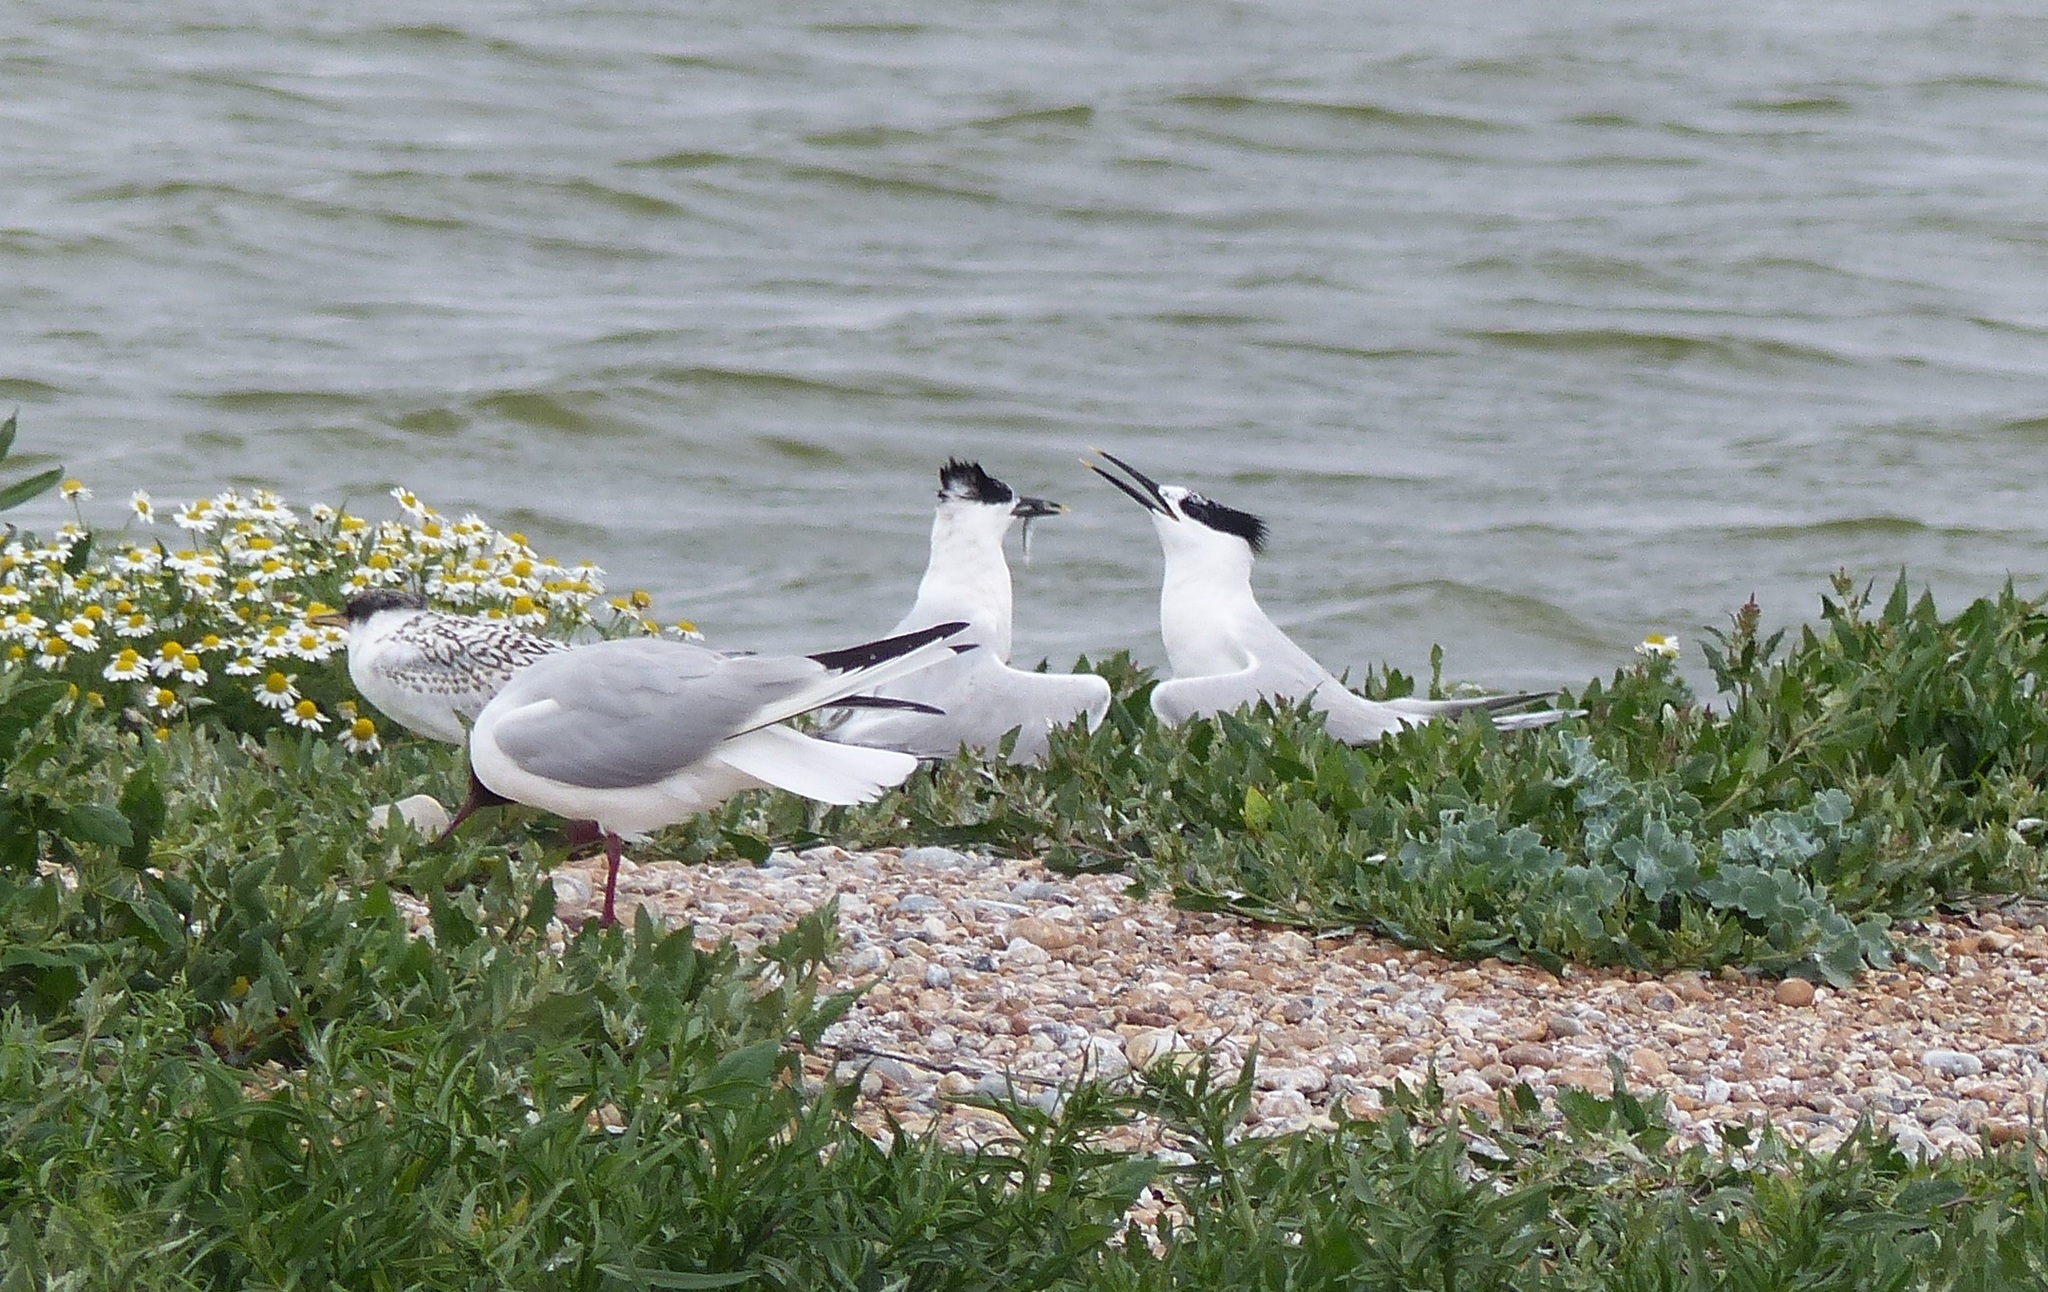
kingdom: Animalia
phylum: Chordata
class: Aves
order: Charadriiformes
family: Laridae
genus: Thalasseus
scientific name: Thalasseus sandvicensis
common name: Sandwich tern
